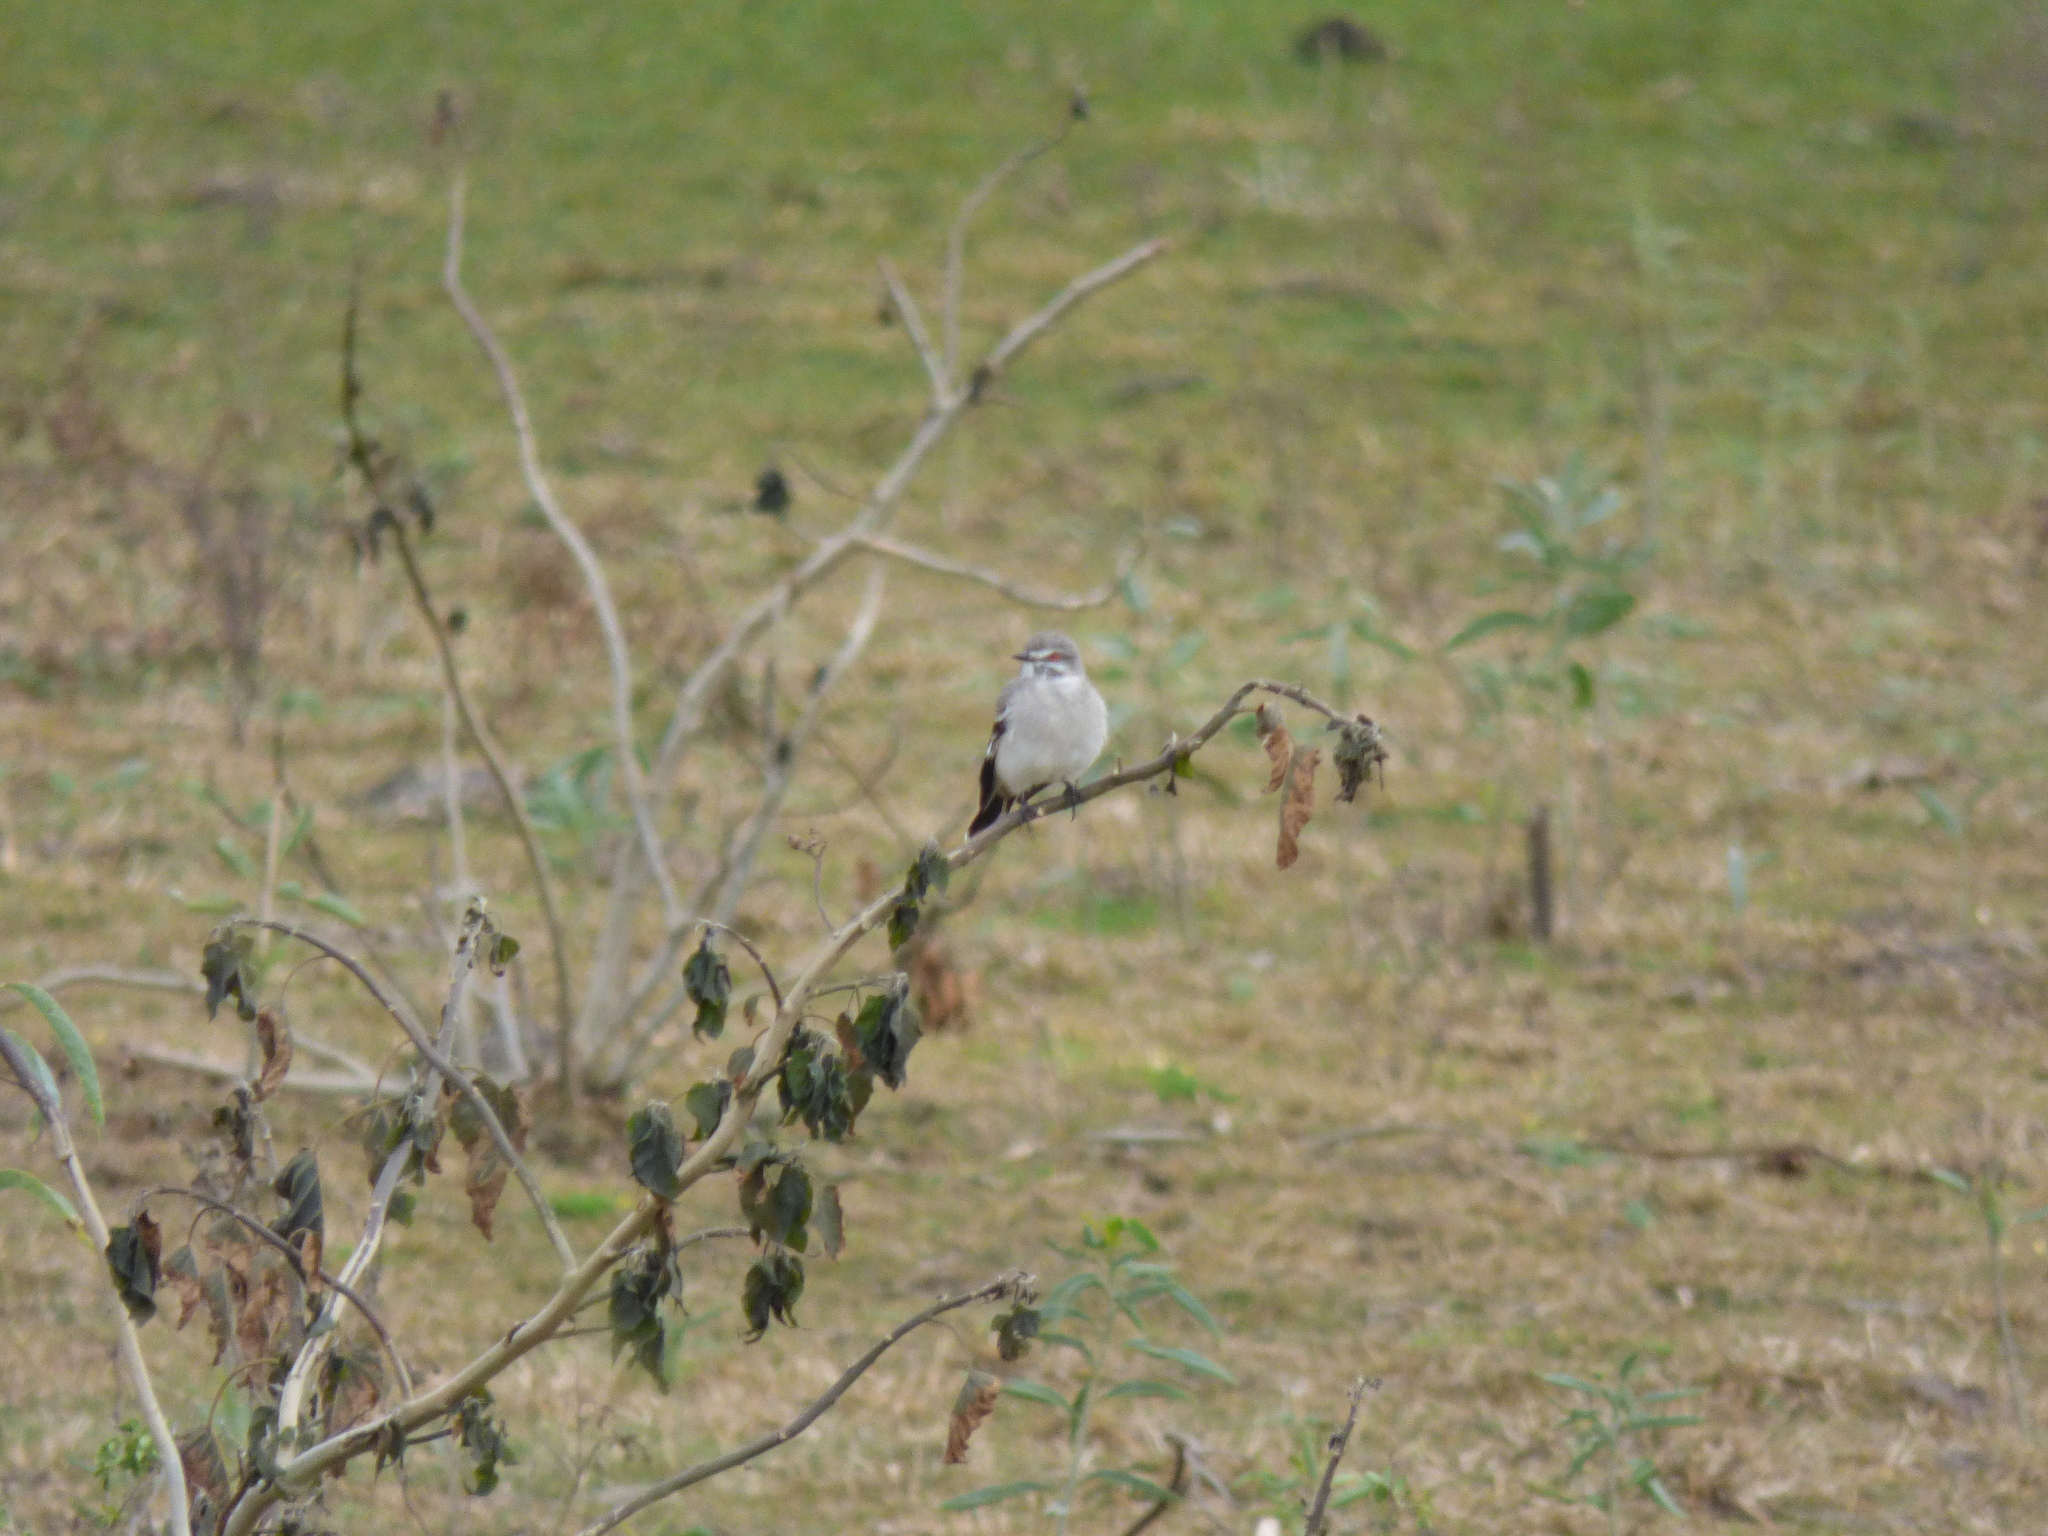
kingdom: Animalia
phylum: Chordata
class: Aves
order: Passeriformes
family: Tyrannidae
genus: Xolmis
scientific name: Xolmis cinereus
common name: Grey monjita
